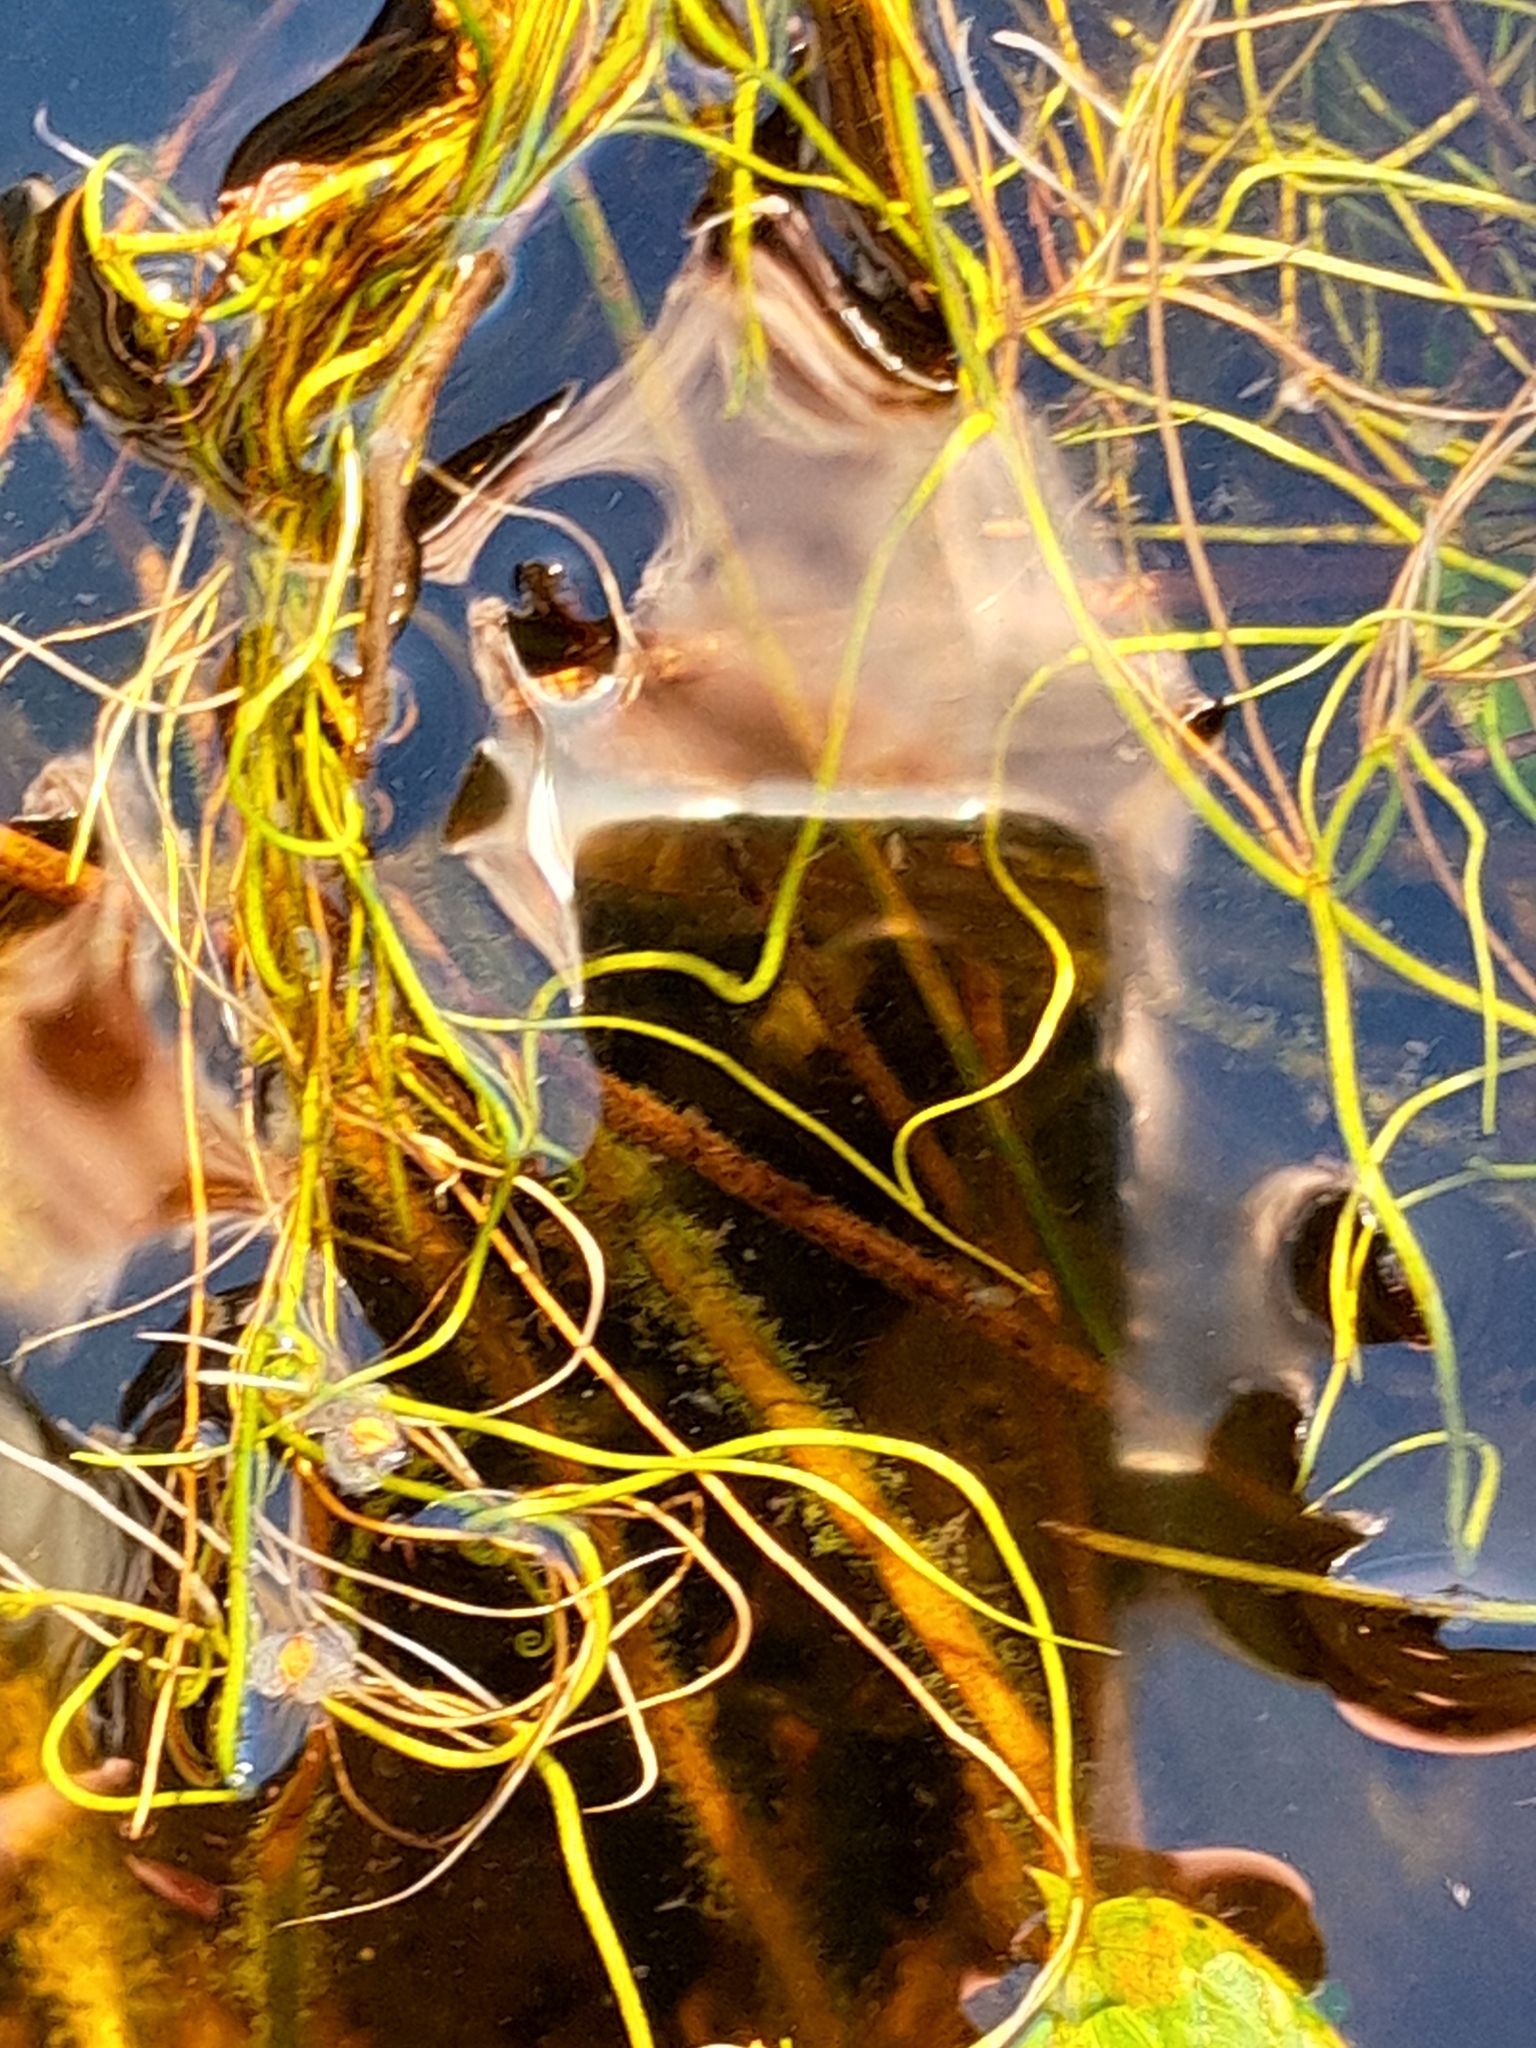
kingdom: Plantae
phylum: Tracheophyta
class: Polypodiopsida
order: Salviniales
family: Marsileaceae
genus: Pilularia
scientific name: Pilularia globulifera
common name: Pillwort
